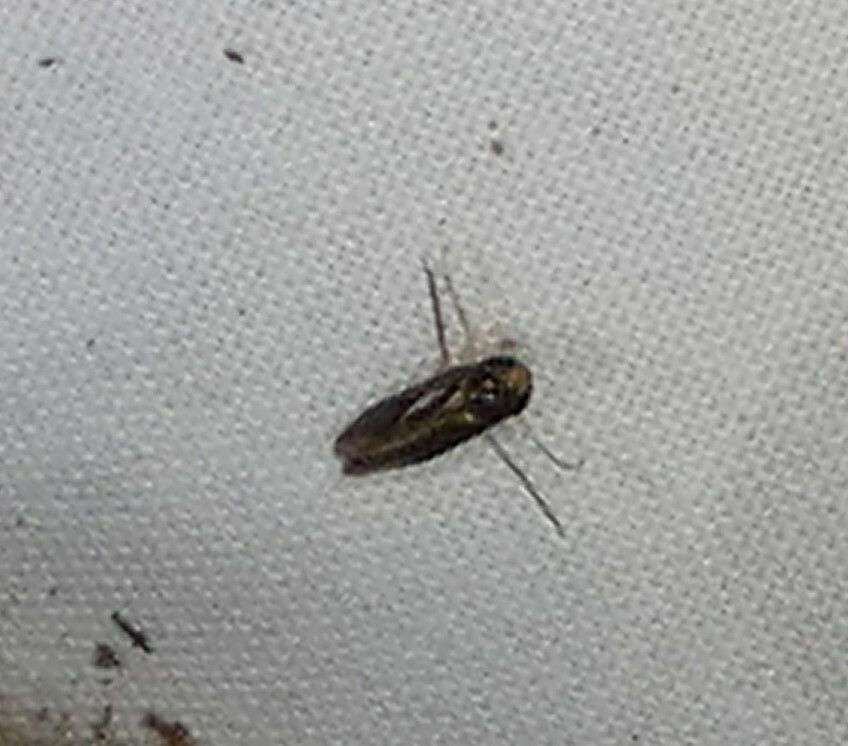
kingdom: Animalia
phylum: Arthropoda
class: Insecta
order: Hemiptera
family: Corixidae
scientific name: Corixidae
